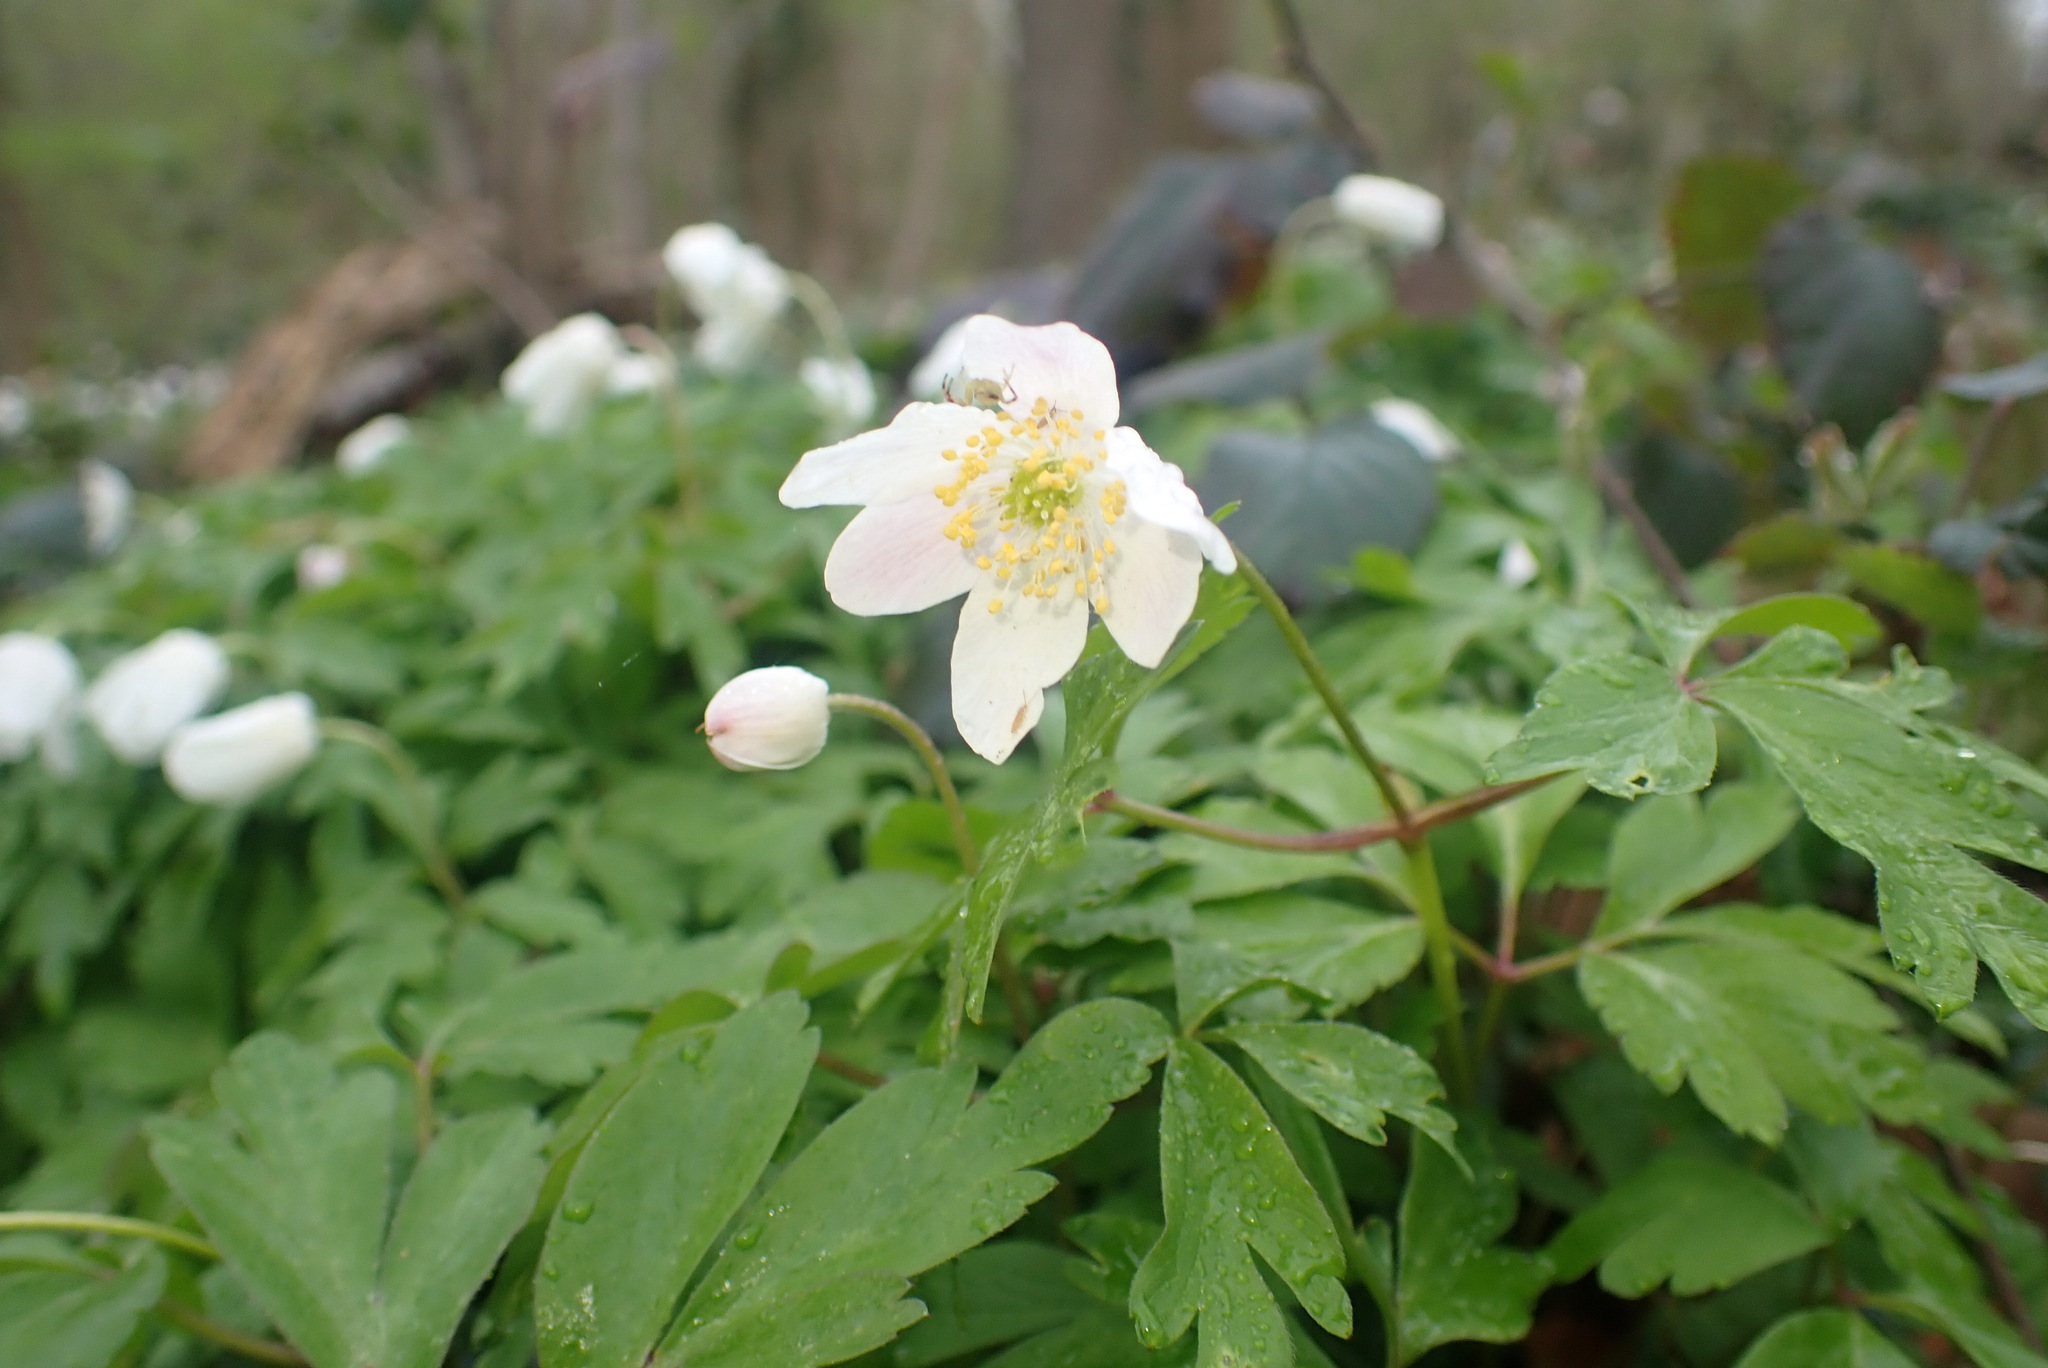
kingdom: Plantae
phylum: Tracheophyta
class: Magnoliopsida
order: Ranunculales
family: Ranunculaceae
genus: Anemone
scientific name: Anemone nemorosa
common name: Wood anemone
